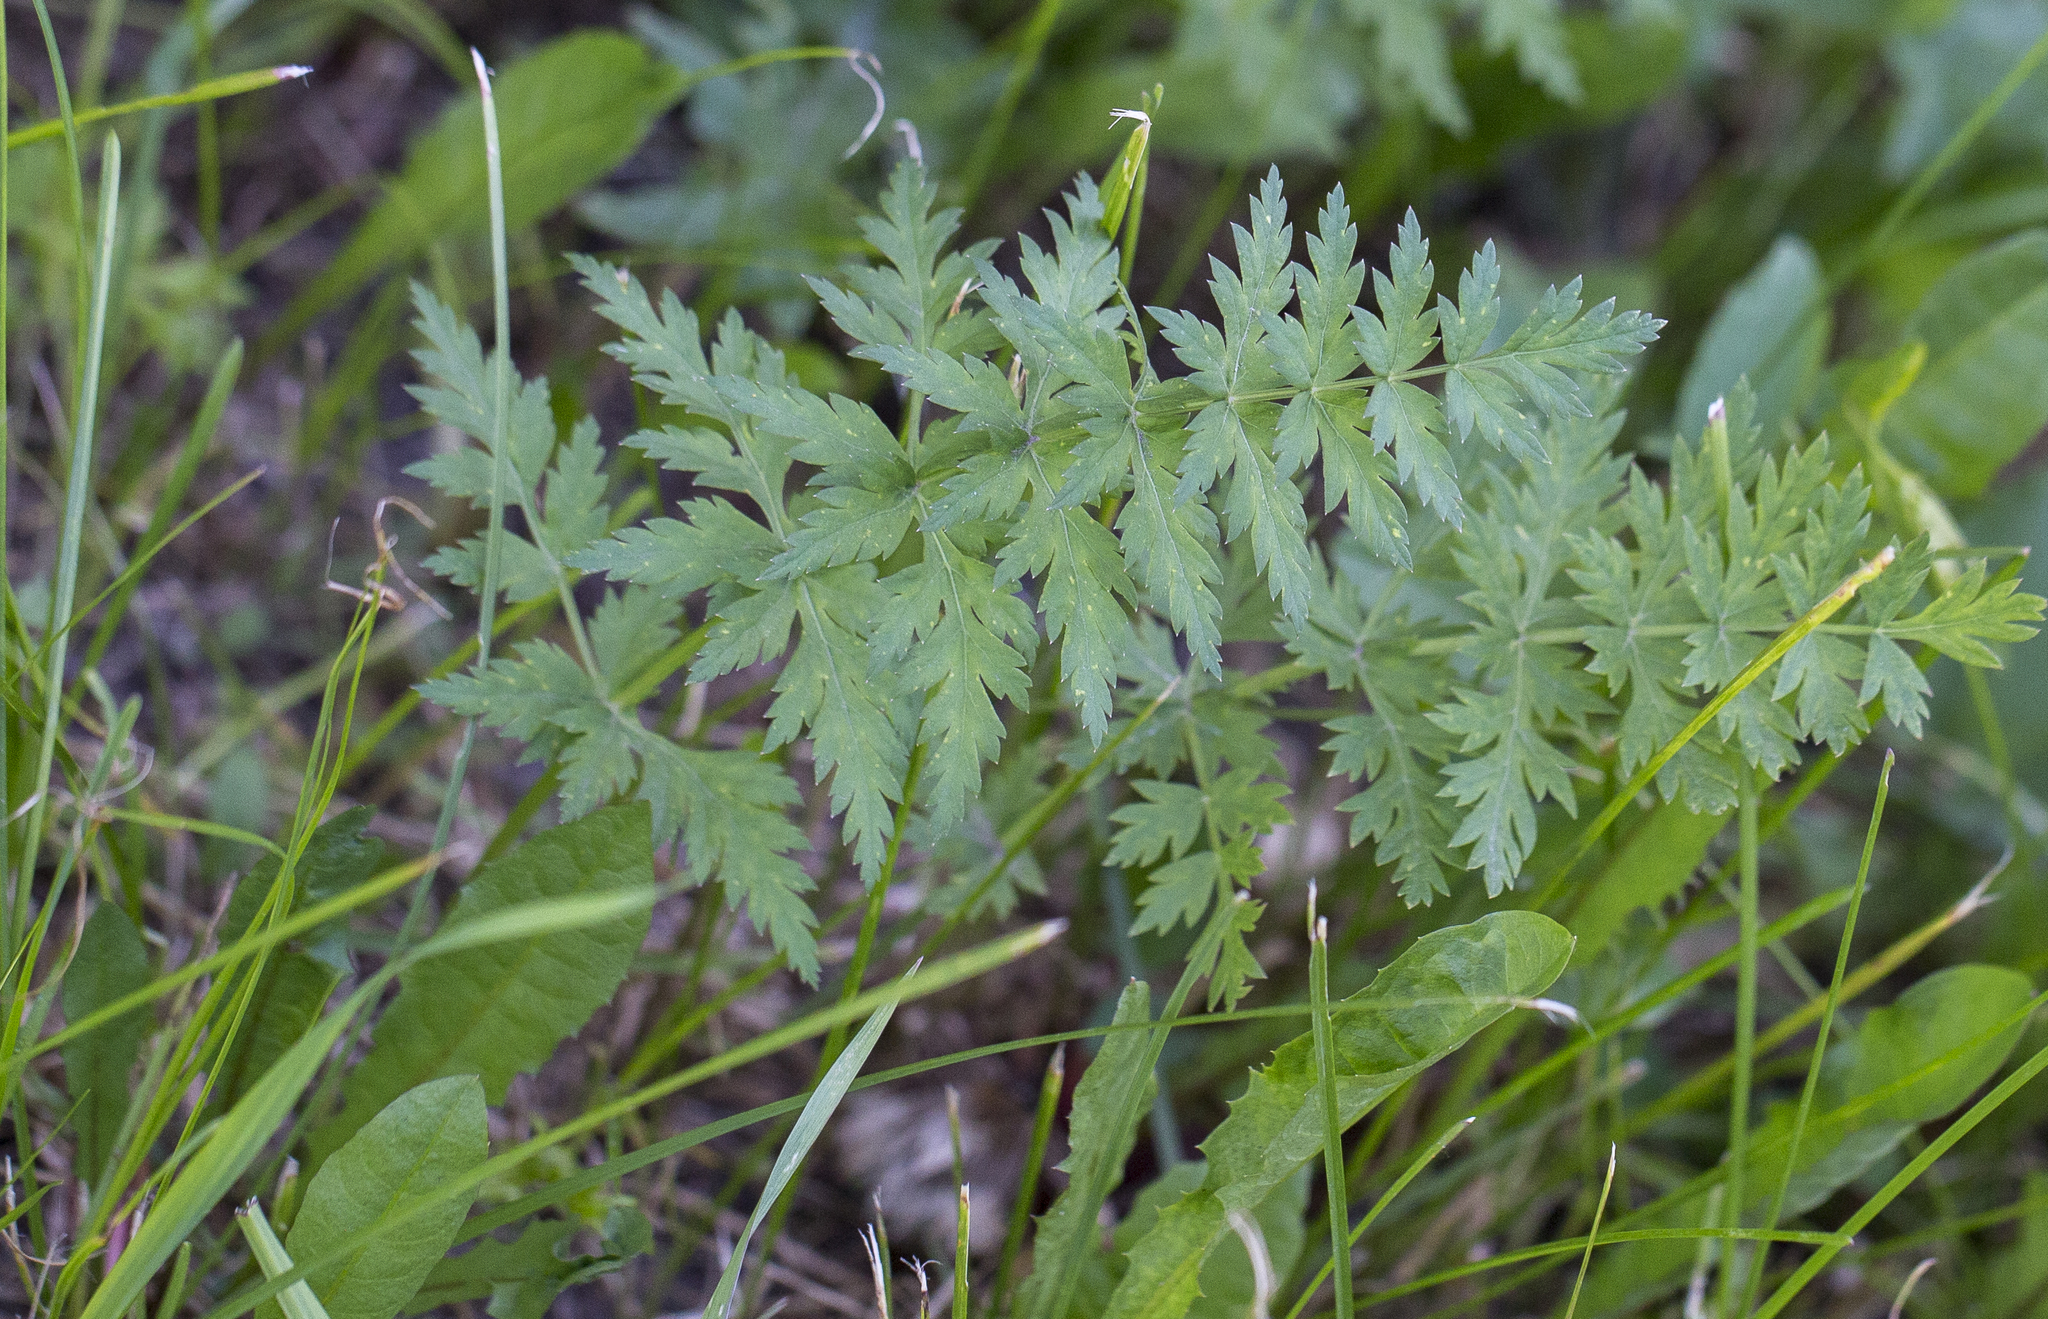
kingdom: Plantae
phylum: Tracheophyta
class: Magnoliopsida
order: Apiales
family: Apiaceae
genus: Seseli
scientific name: Seseli libanotis
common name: Mooncarrot
